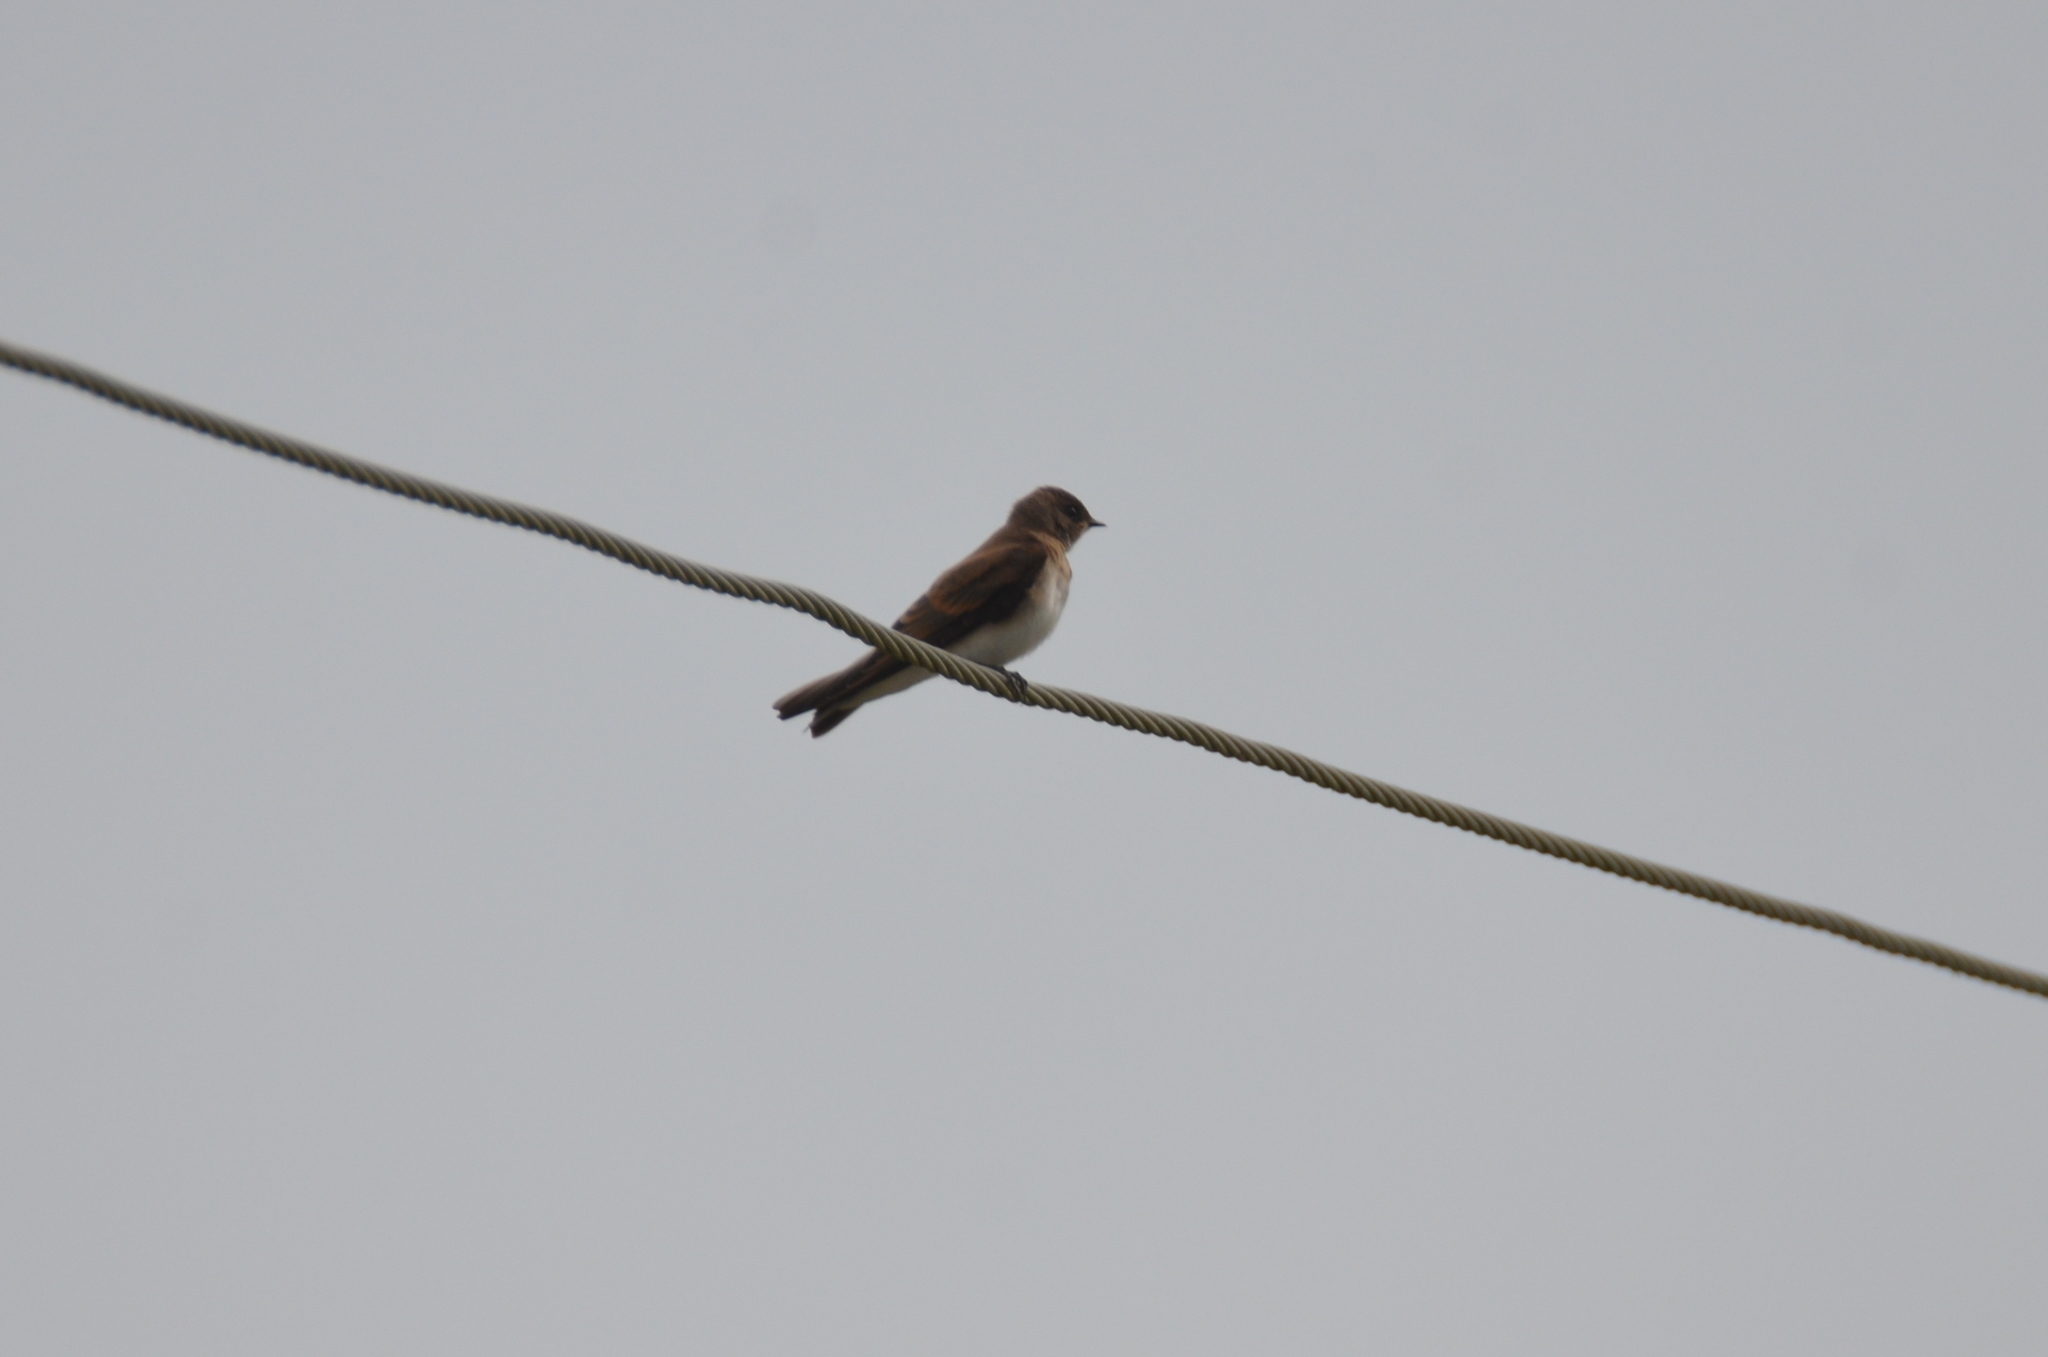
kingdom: Animalia
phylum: Chordata
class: Aves
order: Passeriformes
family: Hirundinidae
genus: Stelgidopteryx
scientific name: Stelgidopteryx serripennis
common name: Northern rough-winged swallow
